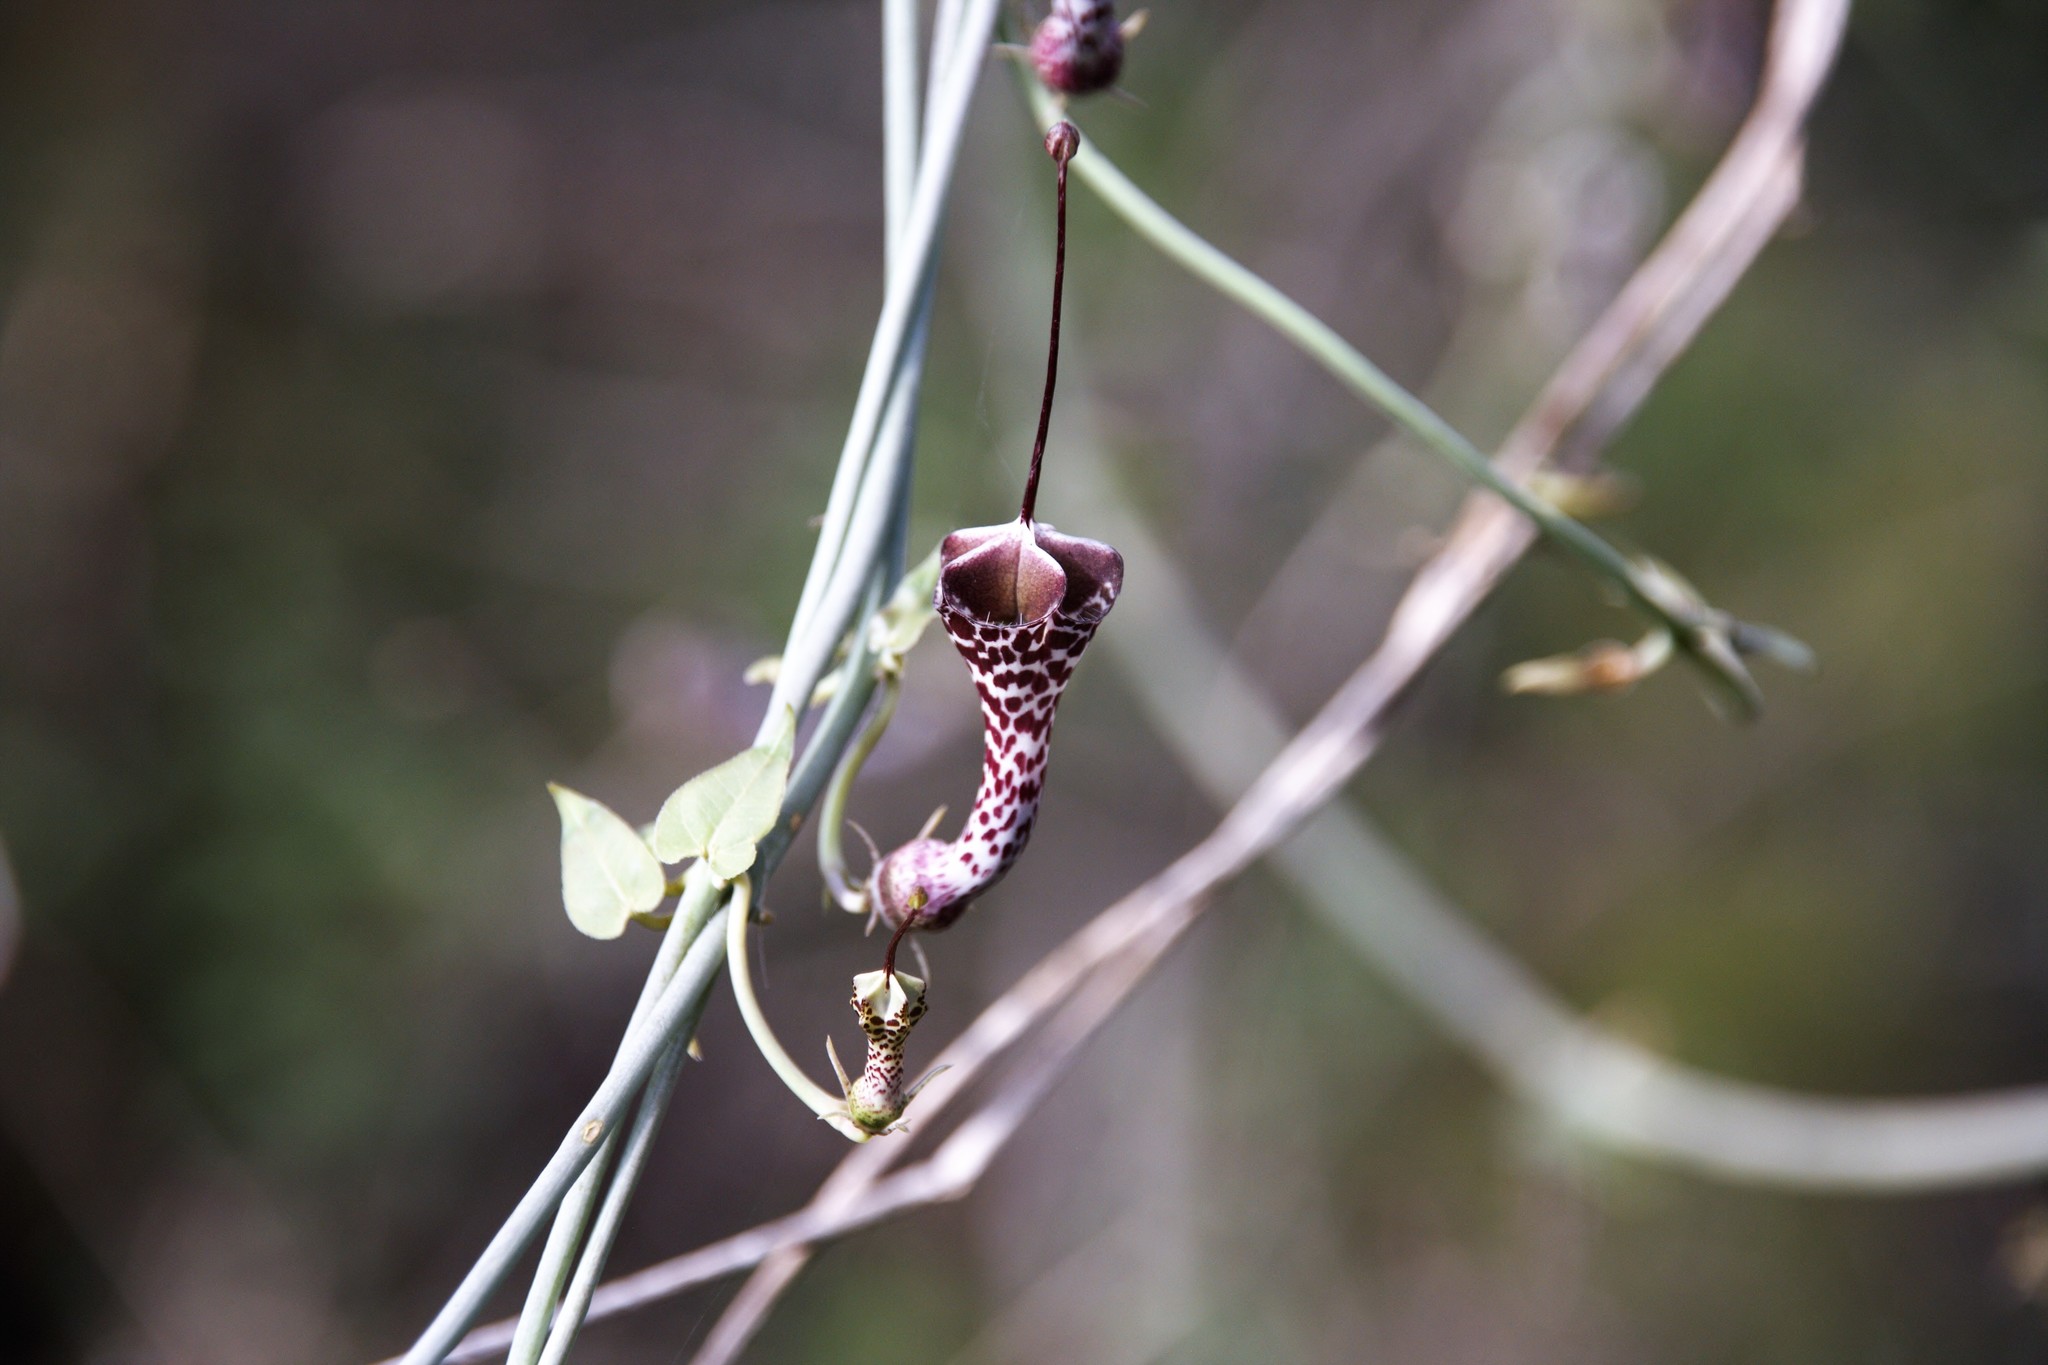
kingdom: Plantae
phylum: Tracheophyta
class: Magnoliopsida
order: Gentianales
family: Apocynaceae
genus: Ceropegia
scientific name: Ceropegia haygarthii
